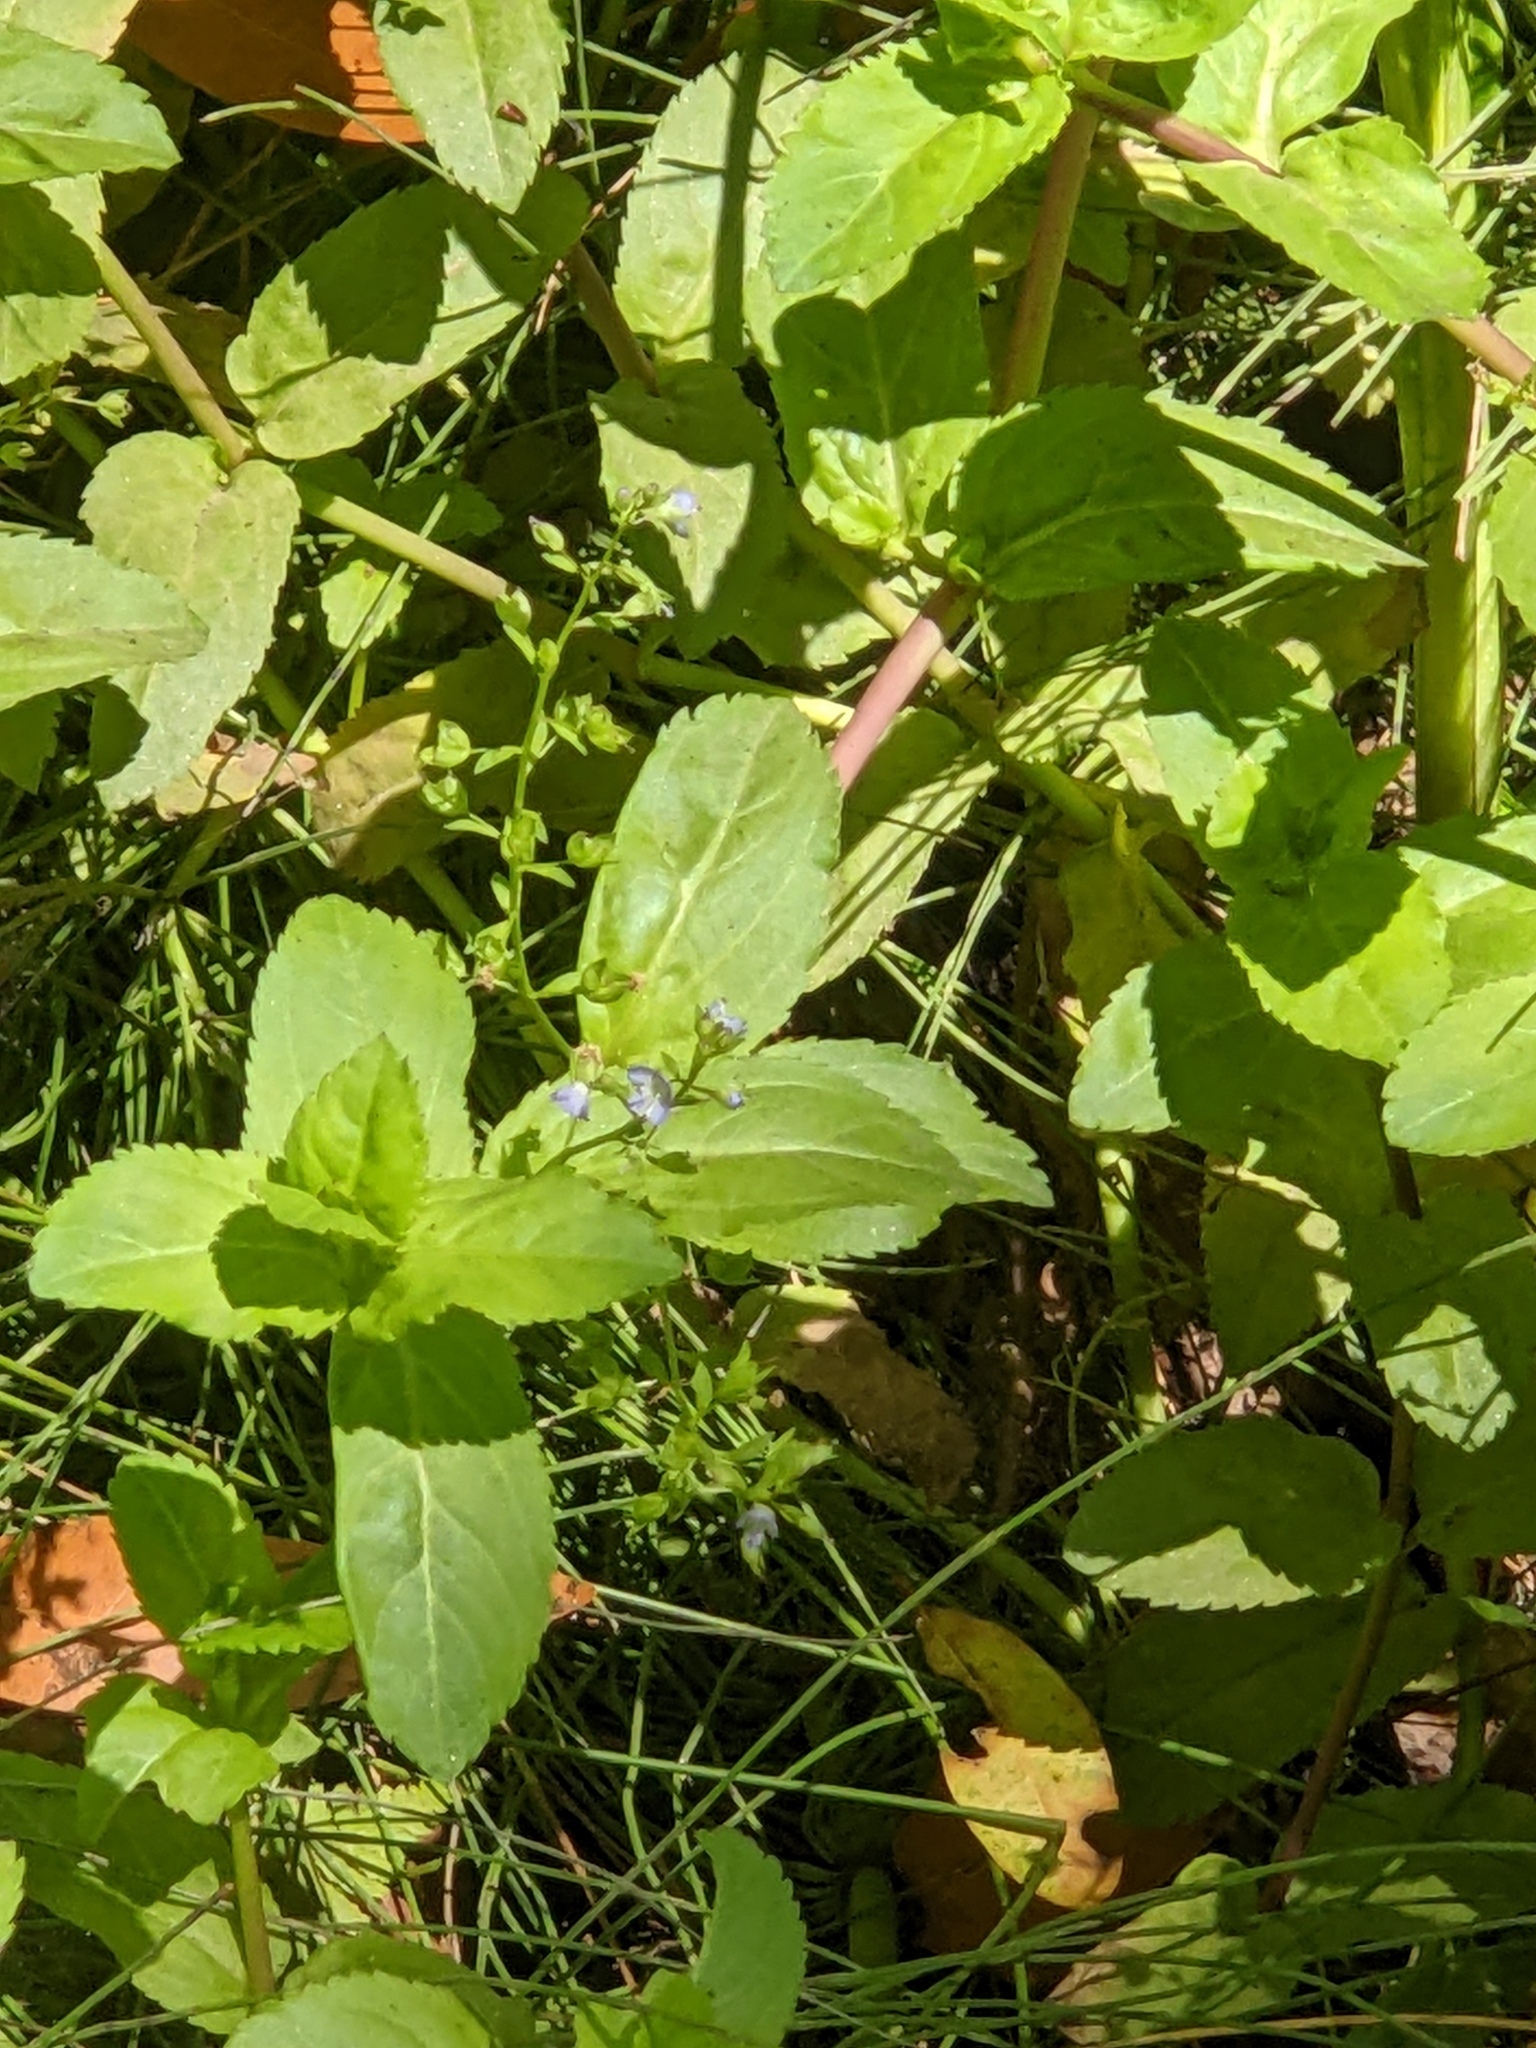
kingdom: Plantae
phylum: Tracheophyta
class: Magnoliopsida
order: Lamiales
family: Plantaginaceae
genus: Veronica
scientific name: Veronica americana
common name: American brooklime
